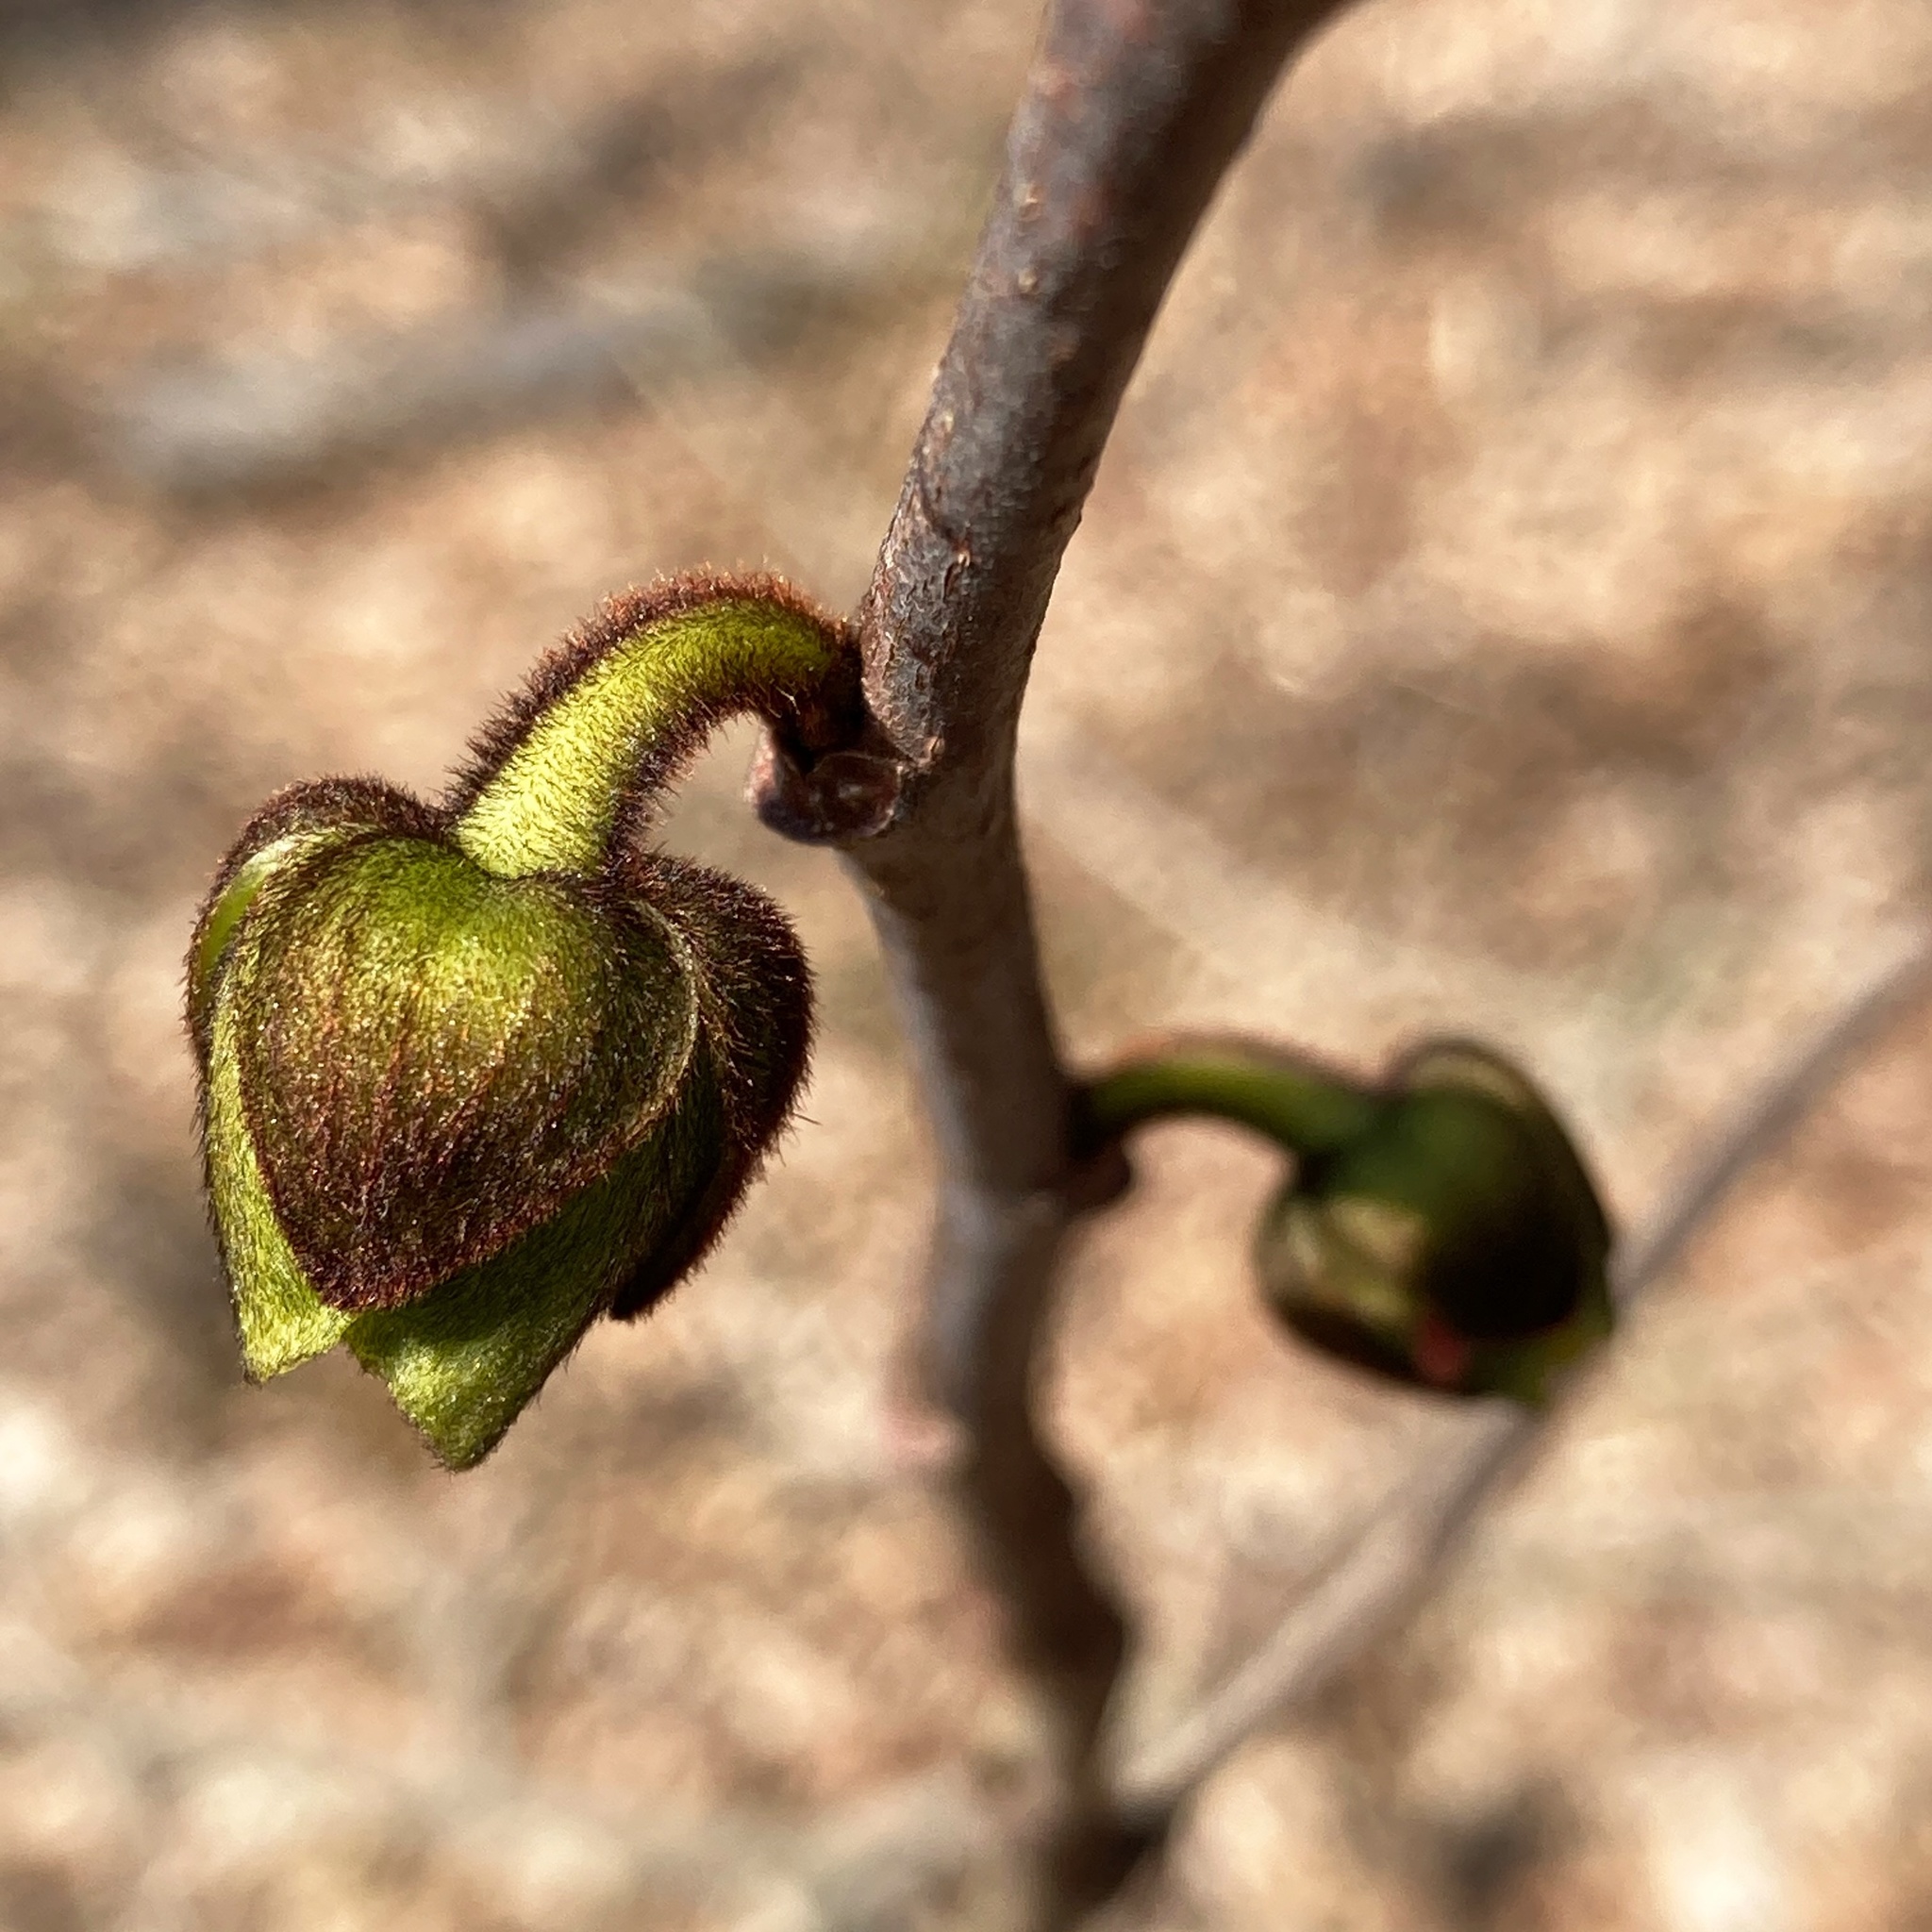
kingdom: Plantae
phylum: Tracheophyta
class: Magnoliopsida
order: Magnoliales
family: Annonaceae
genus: Asimina
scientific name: Asimina triloba
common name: Dog-banana
